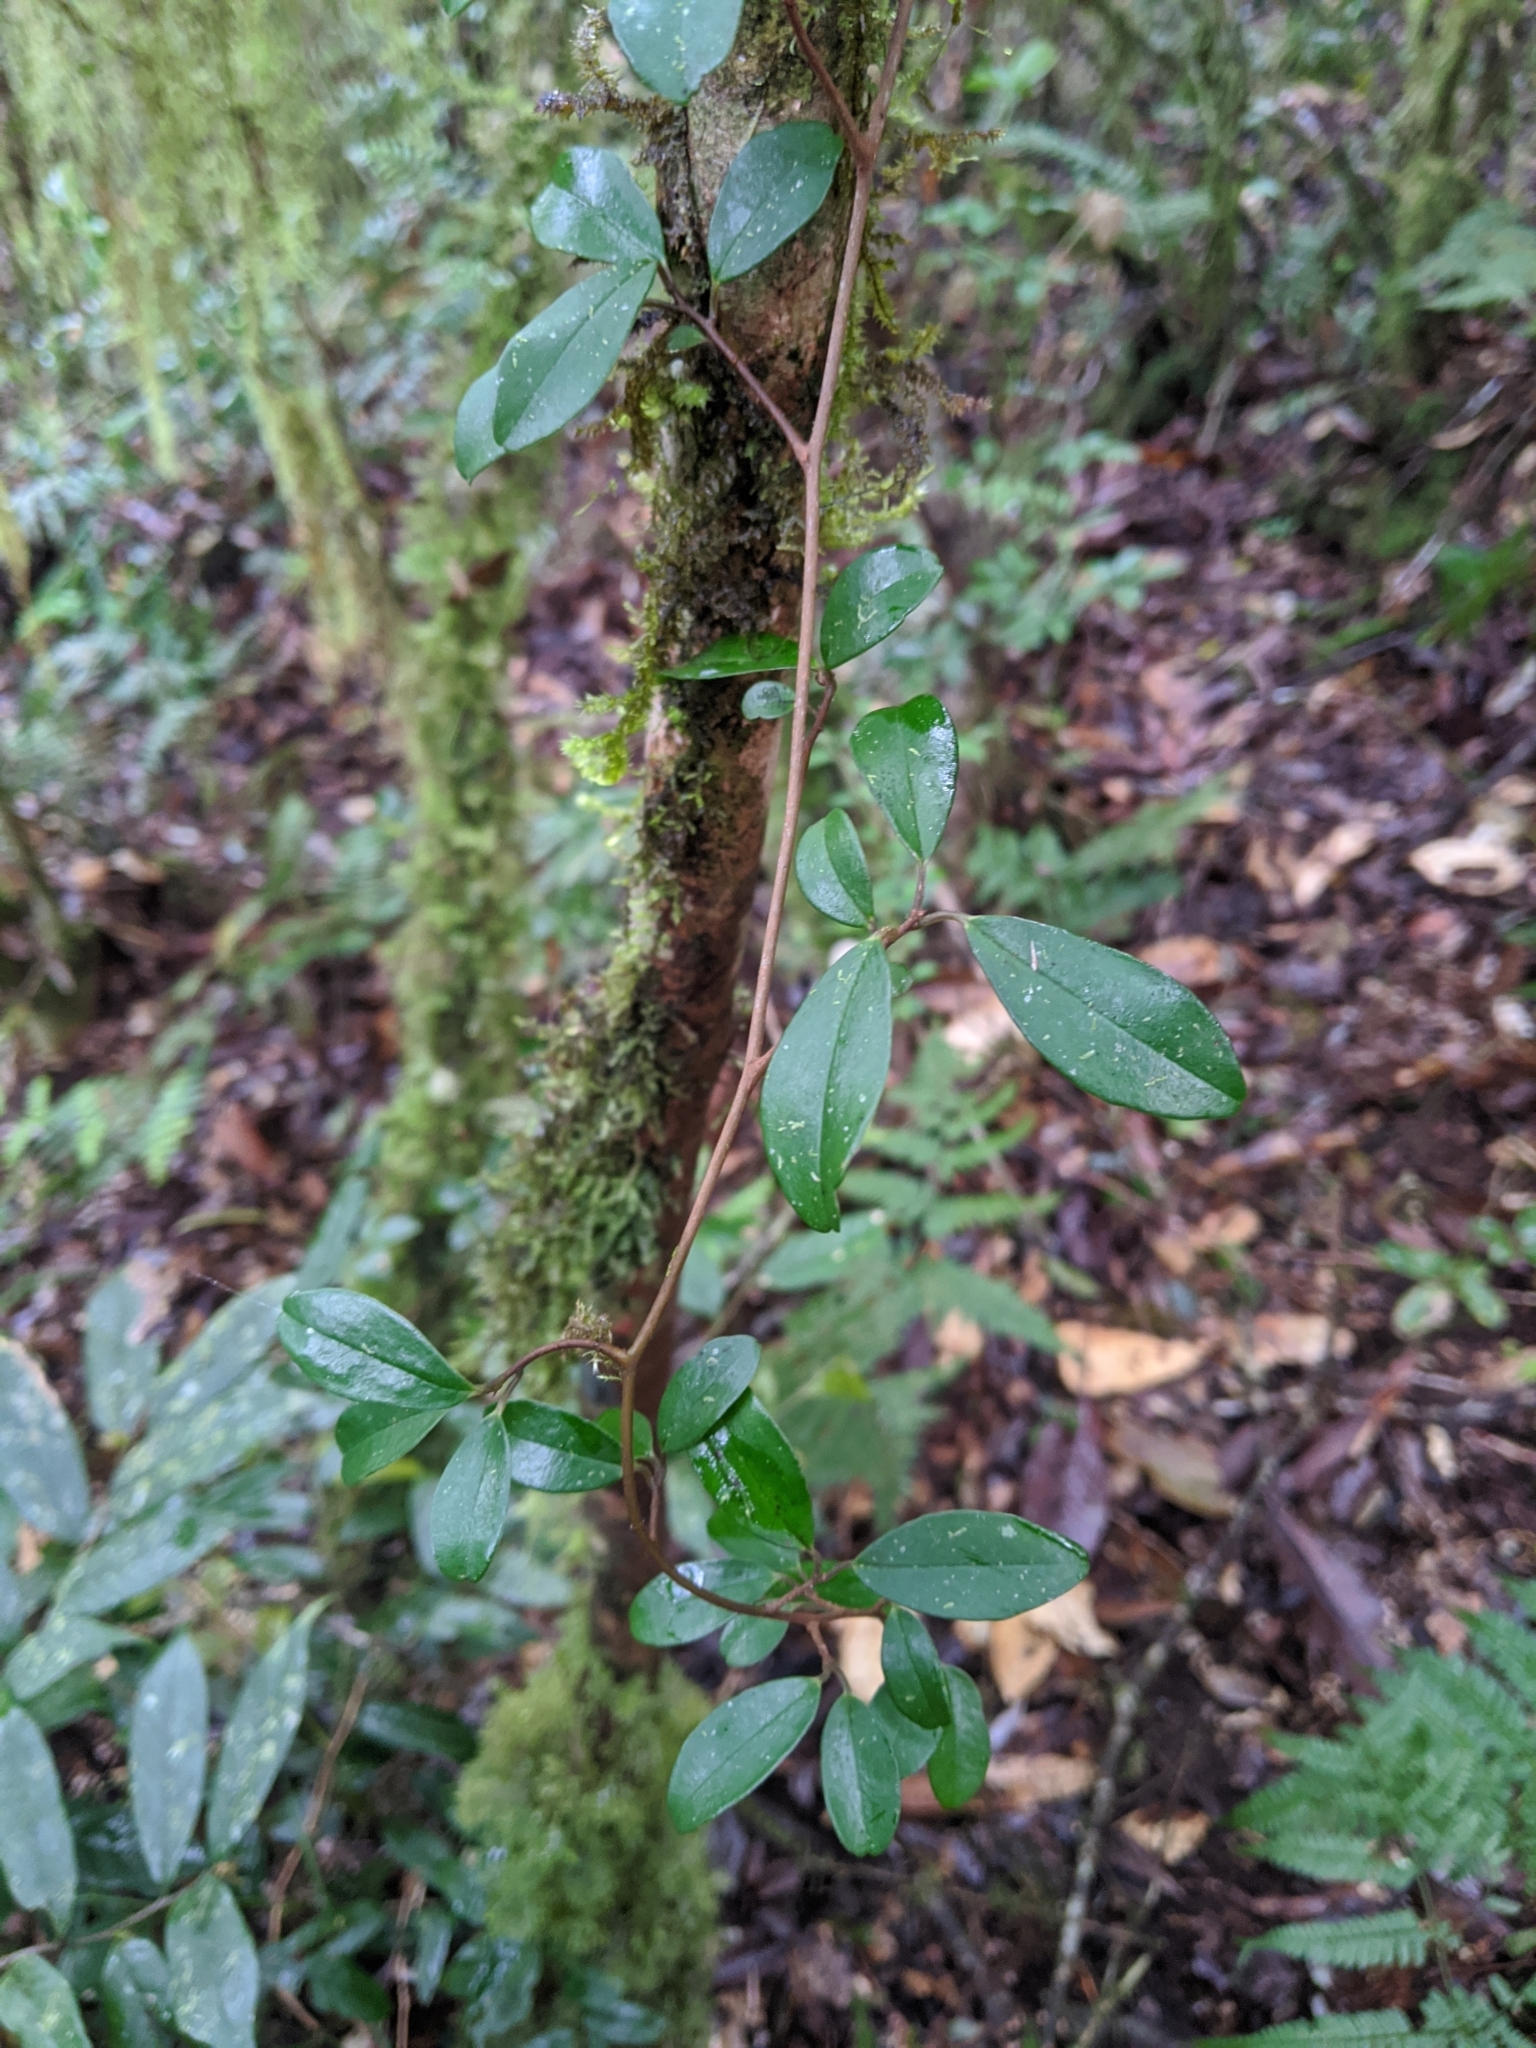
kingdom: Plantae
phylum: Tracheophyta
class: Magnoliopsida
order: Ericales
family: Primulaceae
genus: Embelia
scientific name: Embelia laeta
